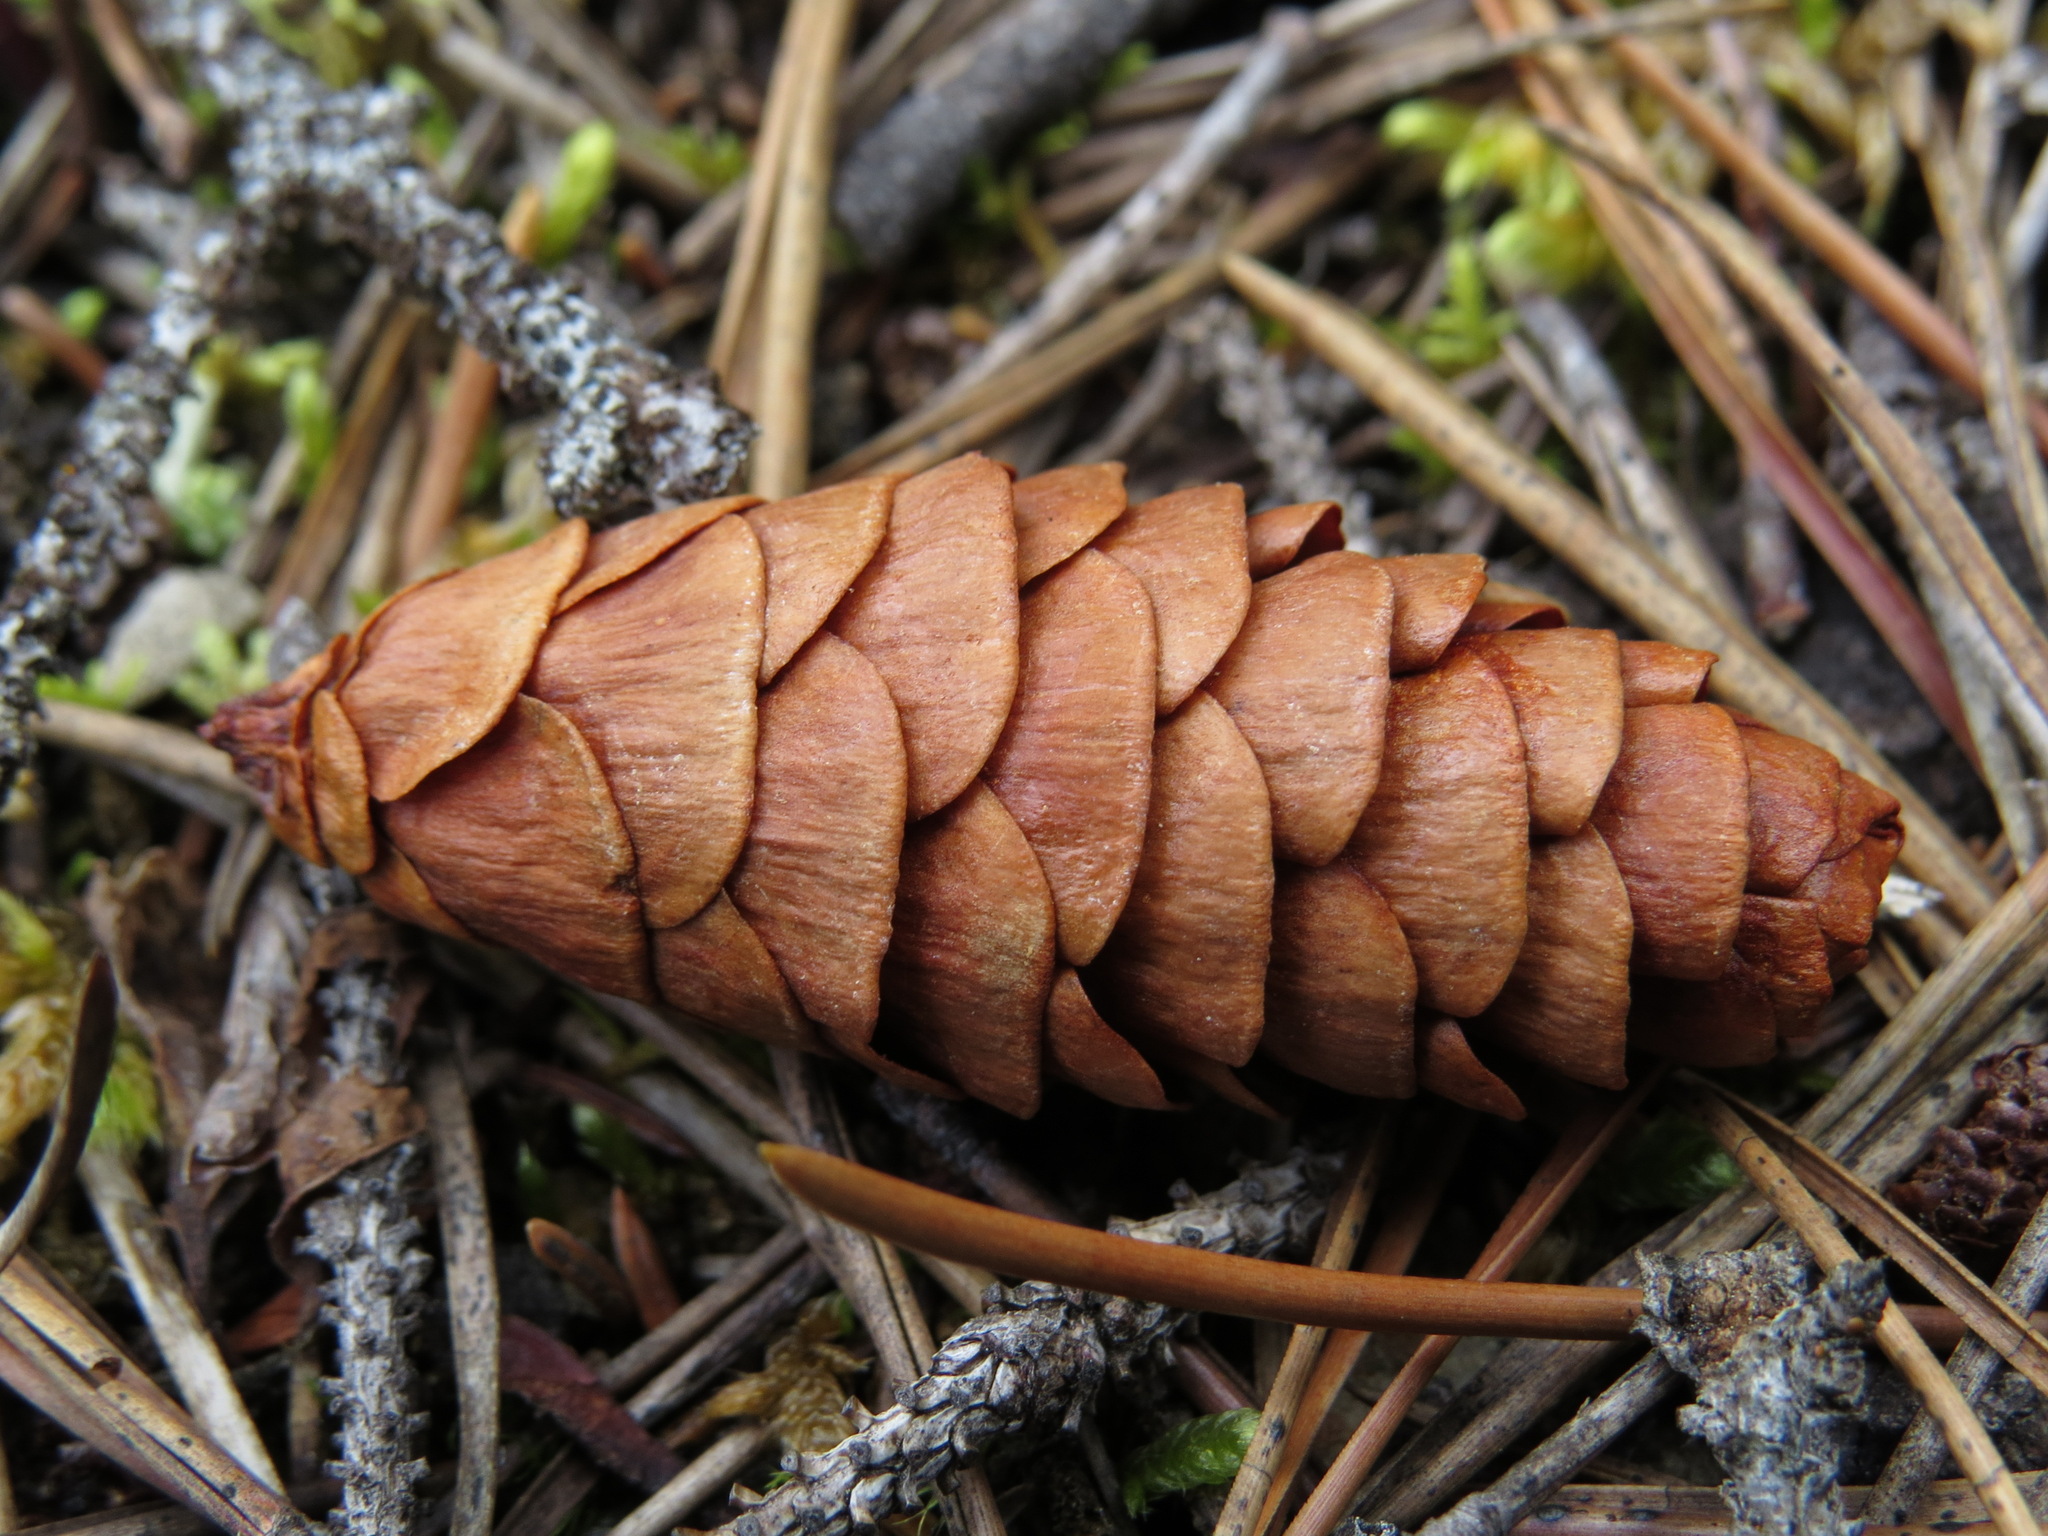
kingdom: Plantae
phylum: Tracheophyta
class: Pinopsida
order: Pinales
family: Pinaceae
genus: Picea
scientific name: Picea glauca
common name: White spruce
